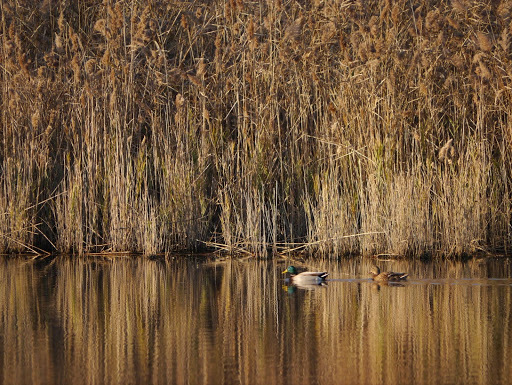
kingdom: Animalia
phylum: Chordata
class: Aves
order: Anseriformes
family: Anatidae
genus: Anas
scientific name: Anas platyrhynchos
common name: Mallard
